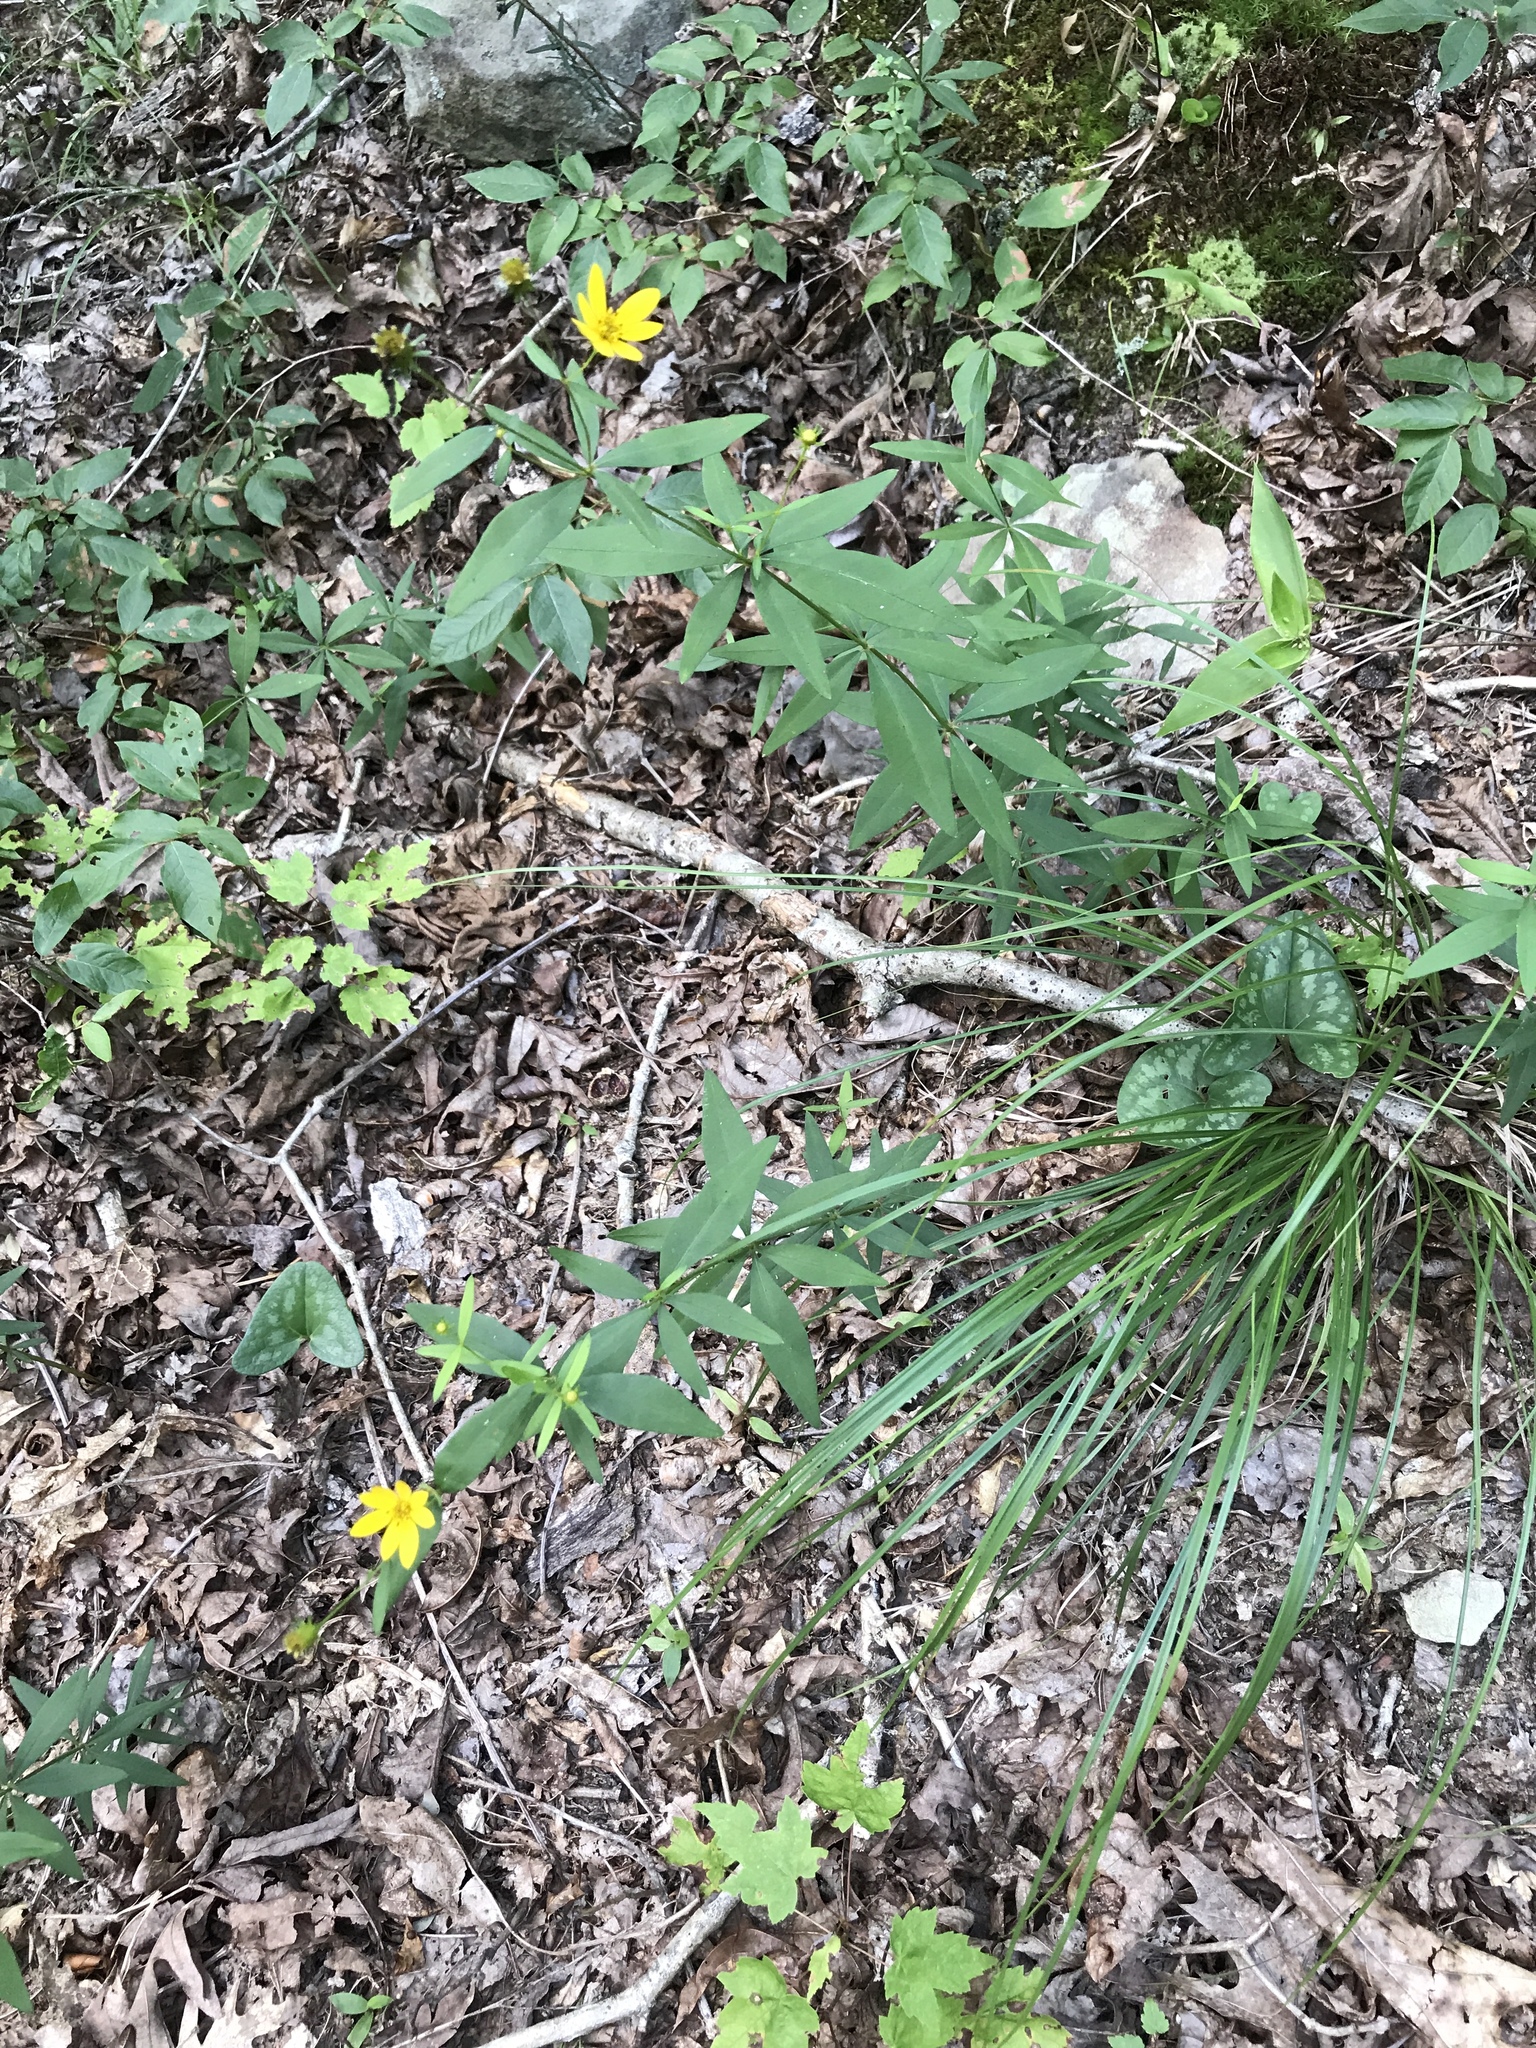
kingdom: Plantae
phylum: Tracheophyta
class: Magnoliopsida
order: Asterales
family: Asteraceae
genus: Coreopsis
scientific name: Coreopsis major
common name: Forest tickseed
